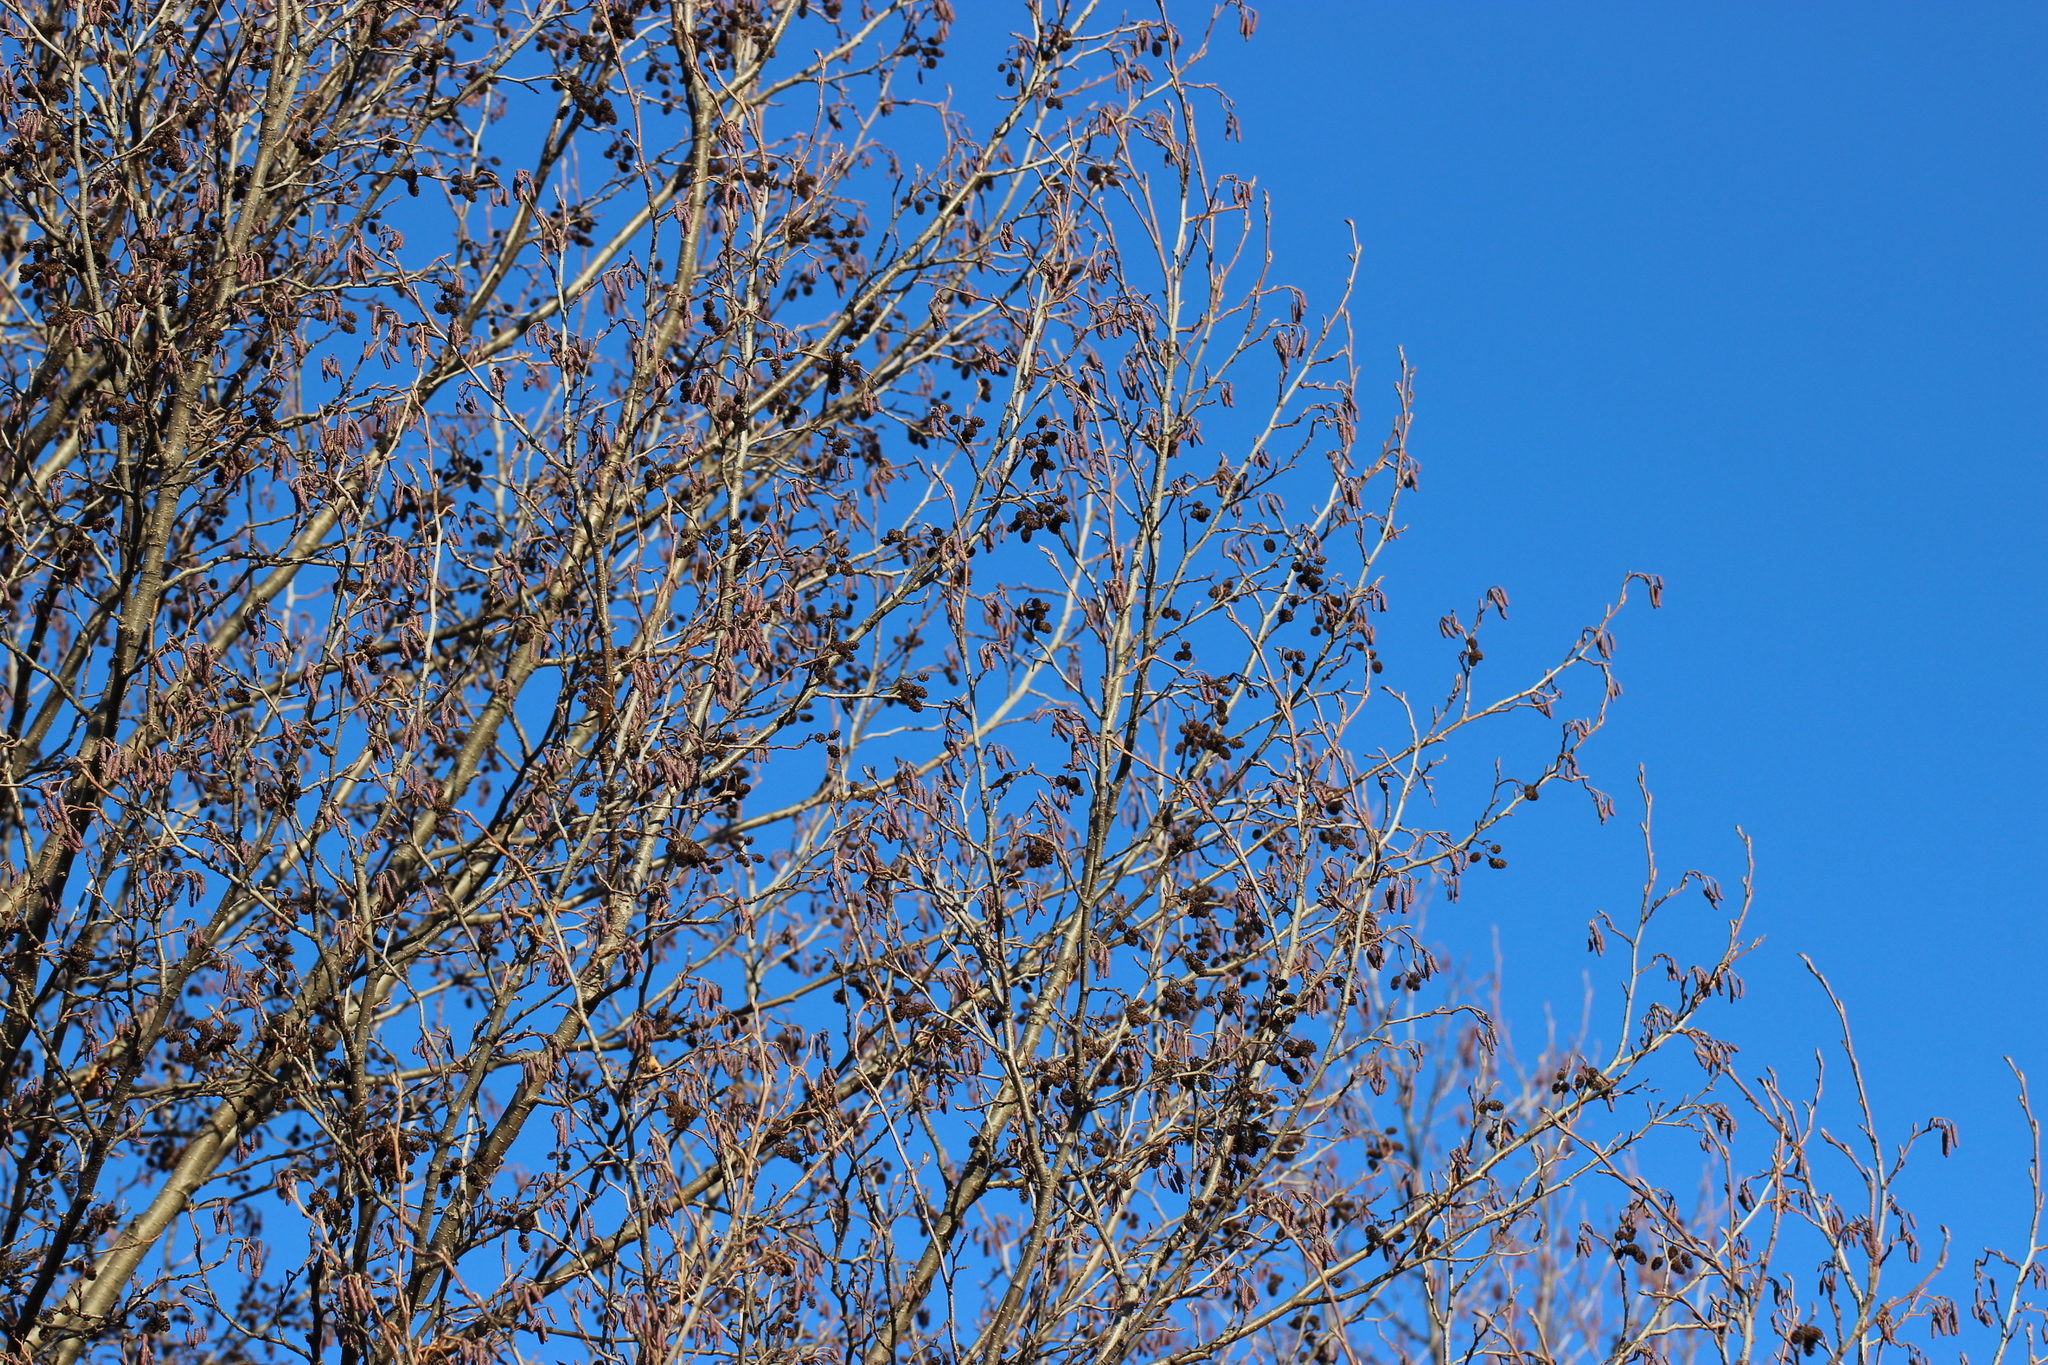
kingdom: Plantae
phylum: Tracheophyta
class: Magnoliopsida
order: Fagales
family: Betulaceae
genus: Alnus
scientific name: Alnus glutinosa
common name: Black alder
